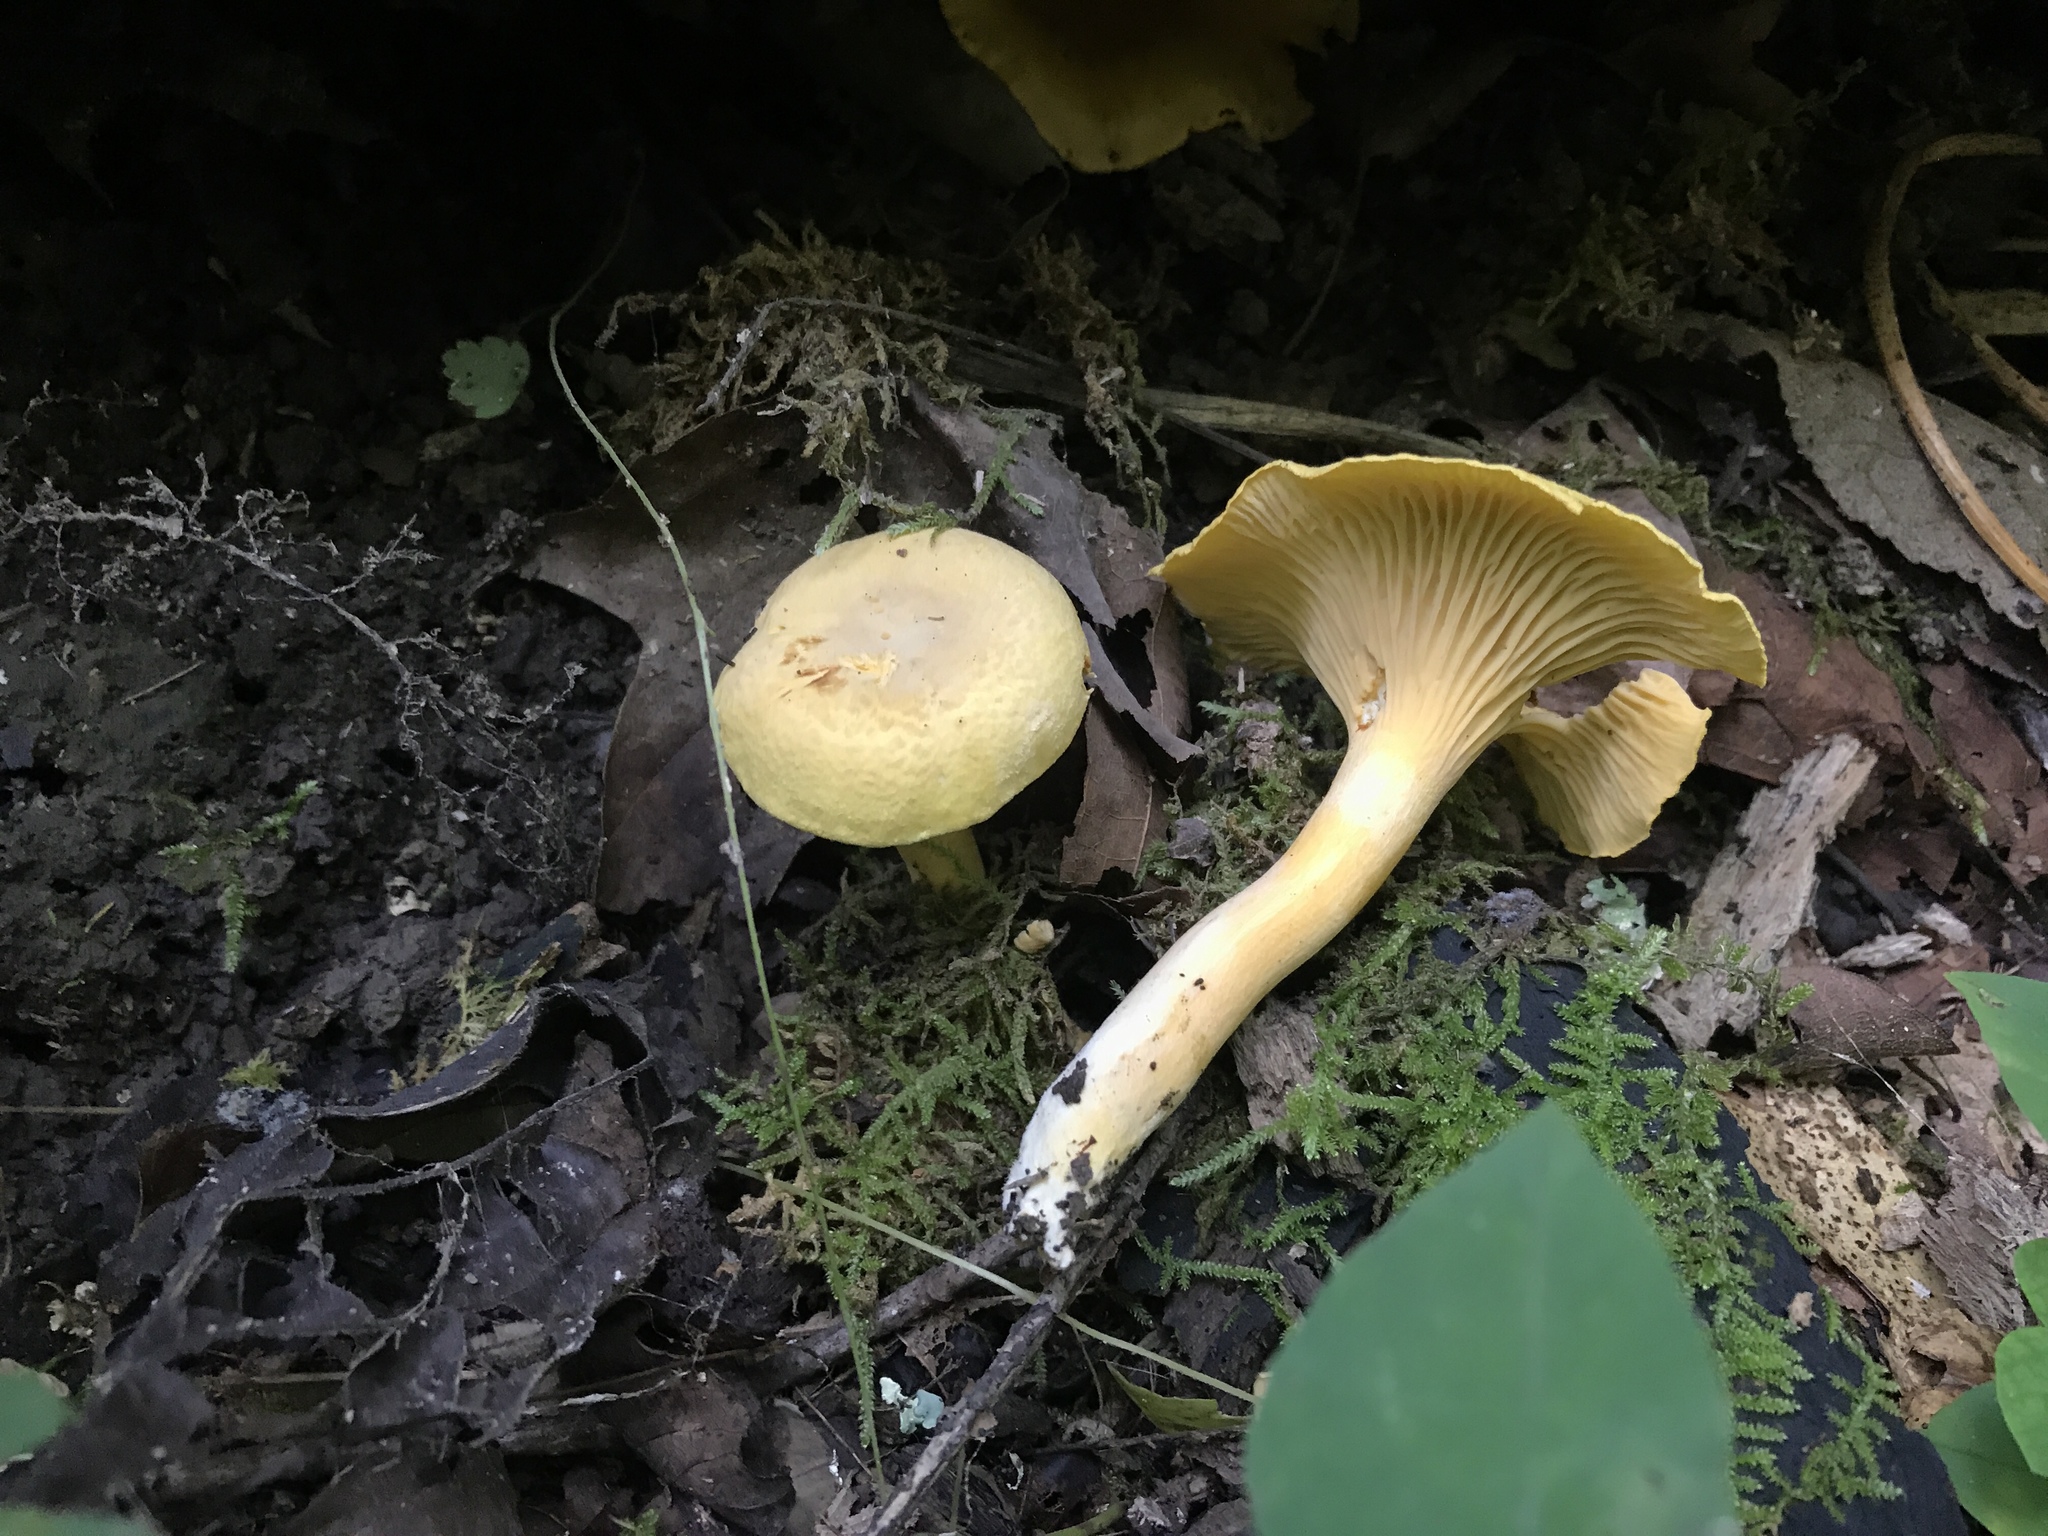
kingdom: Fungi
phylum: Basidiomycota
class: Agaricomycetes
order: Cantharellales
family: Hydnaceae
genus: Cantharellus
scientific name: Cantharellus lewisii
